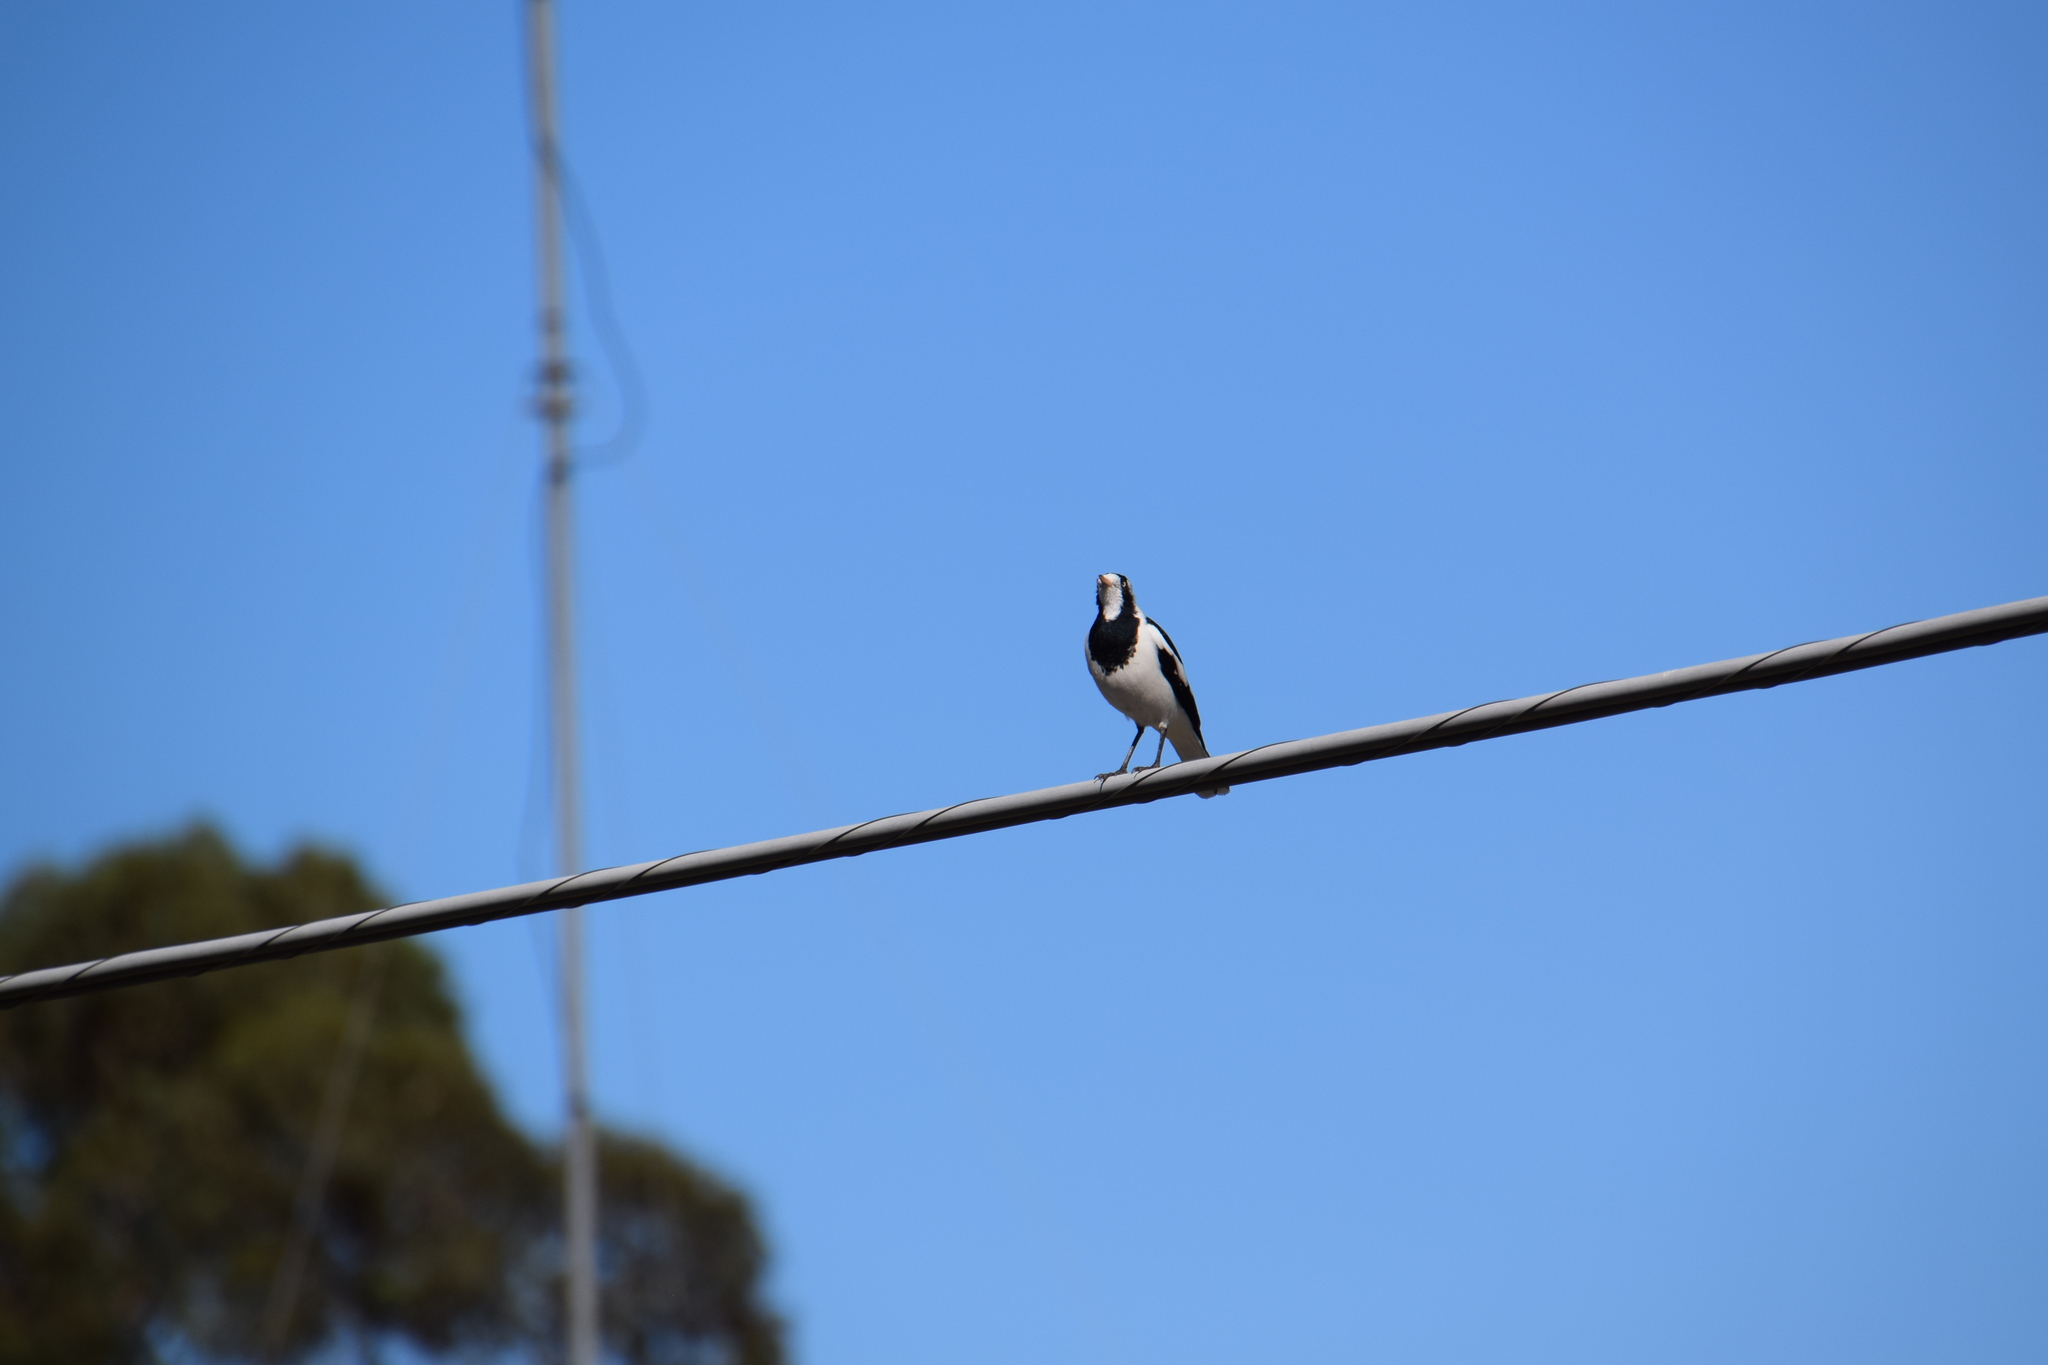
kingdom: Animalia
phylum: Chordata
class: Aves
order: Passeriformes
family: Monarchidae
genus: Grallina
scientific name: Grallina cyanoleuca
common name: Magpie-lark
